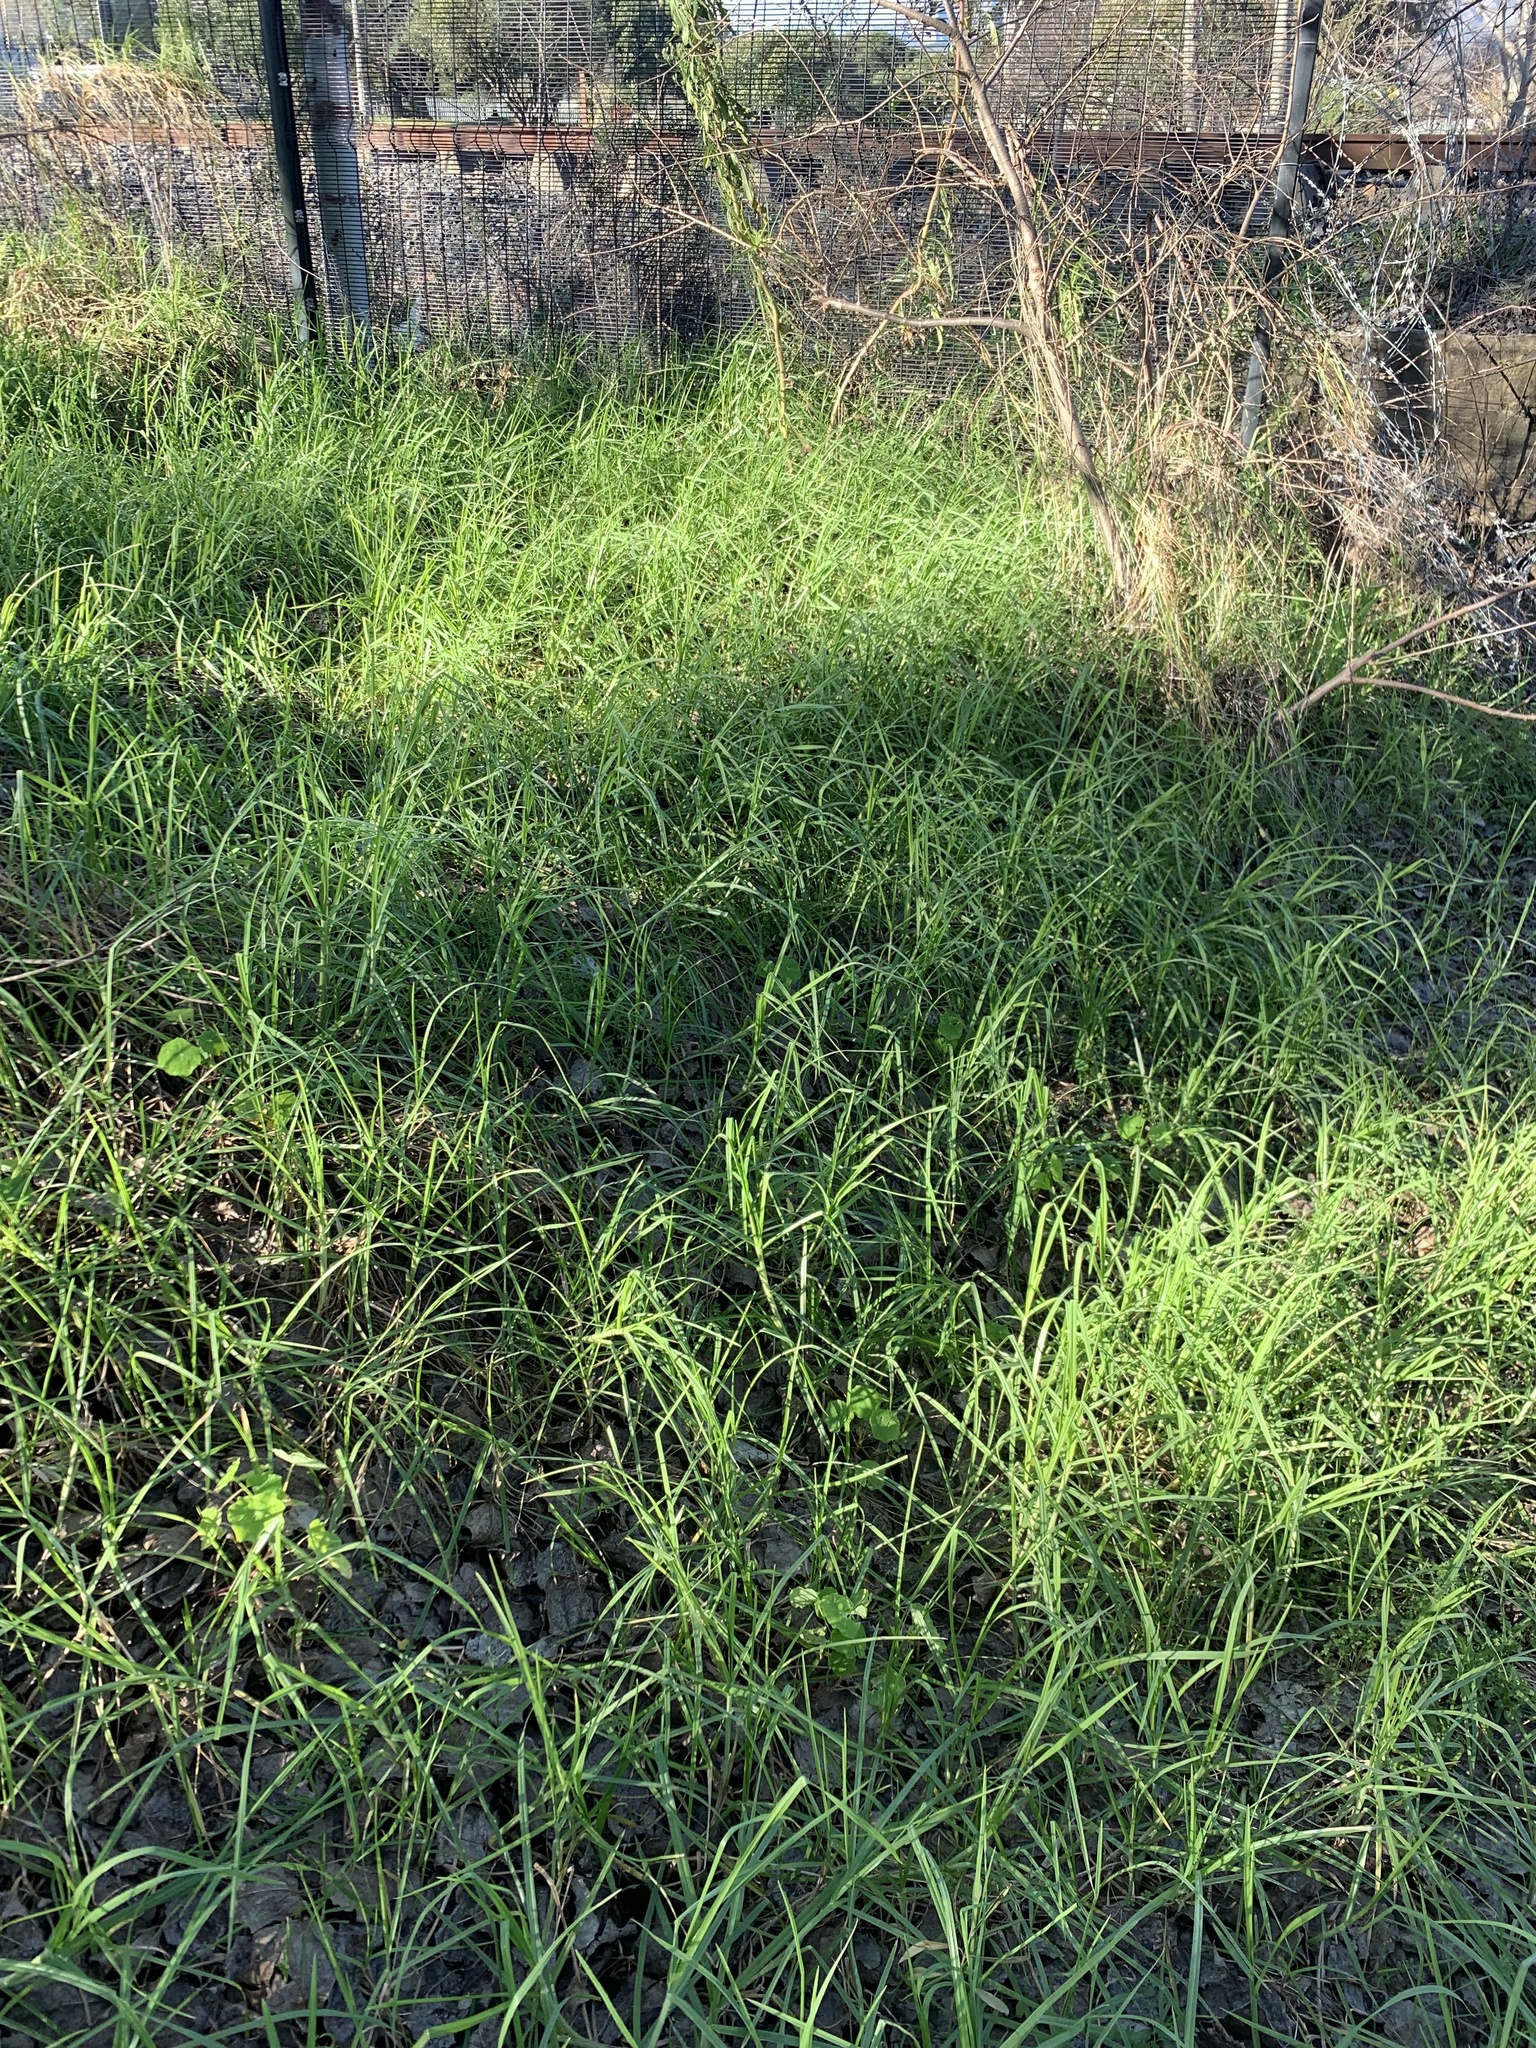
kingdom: Plantae
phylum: Tracheophyta
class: Liliopsida
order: Poales
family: Poaceae
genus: Cenchrus
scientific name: Cenchrus clandestinus
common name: Kikuyugrass
